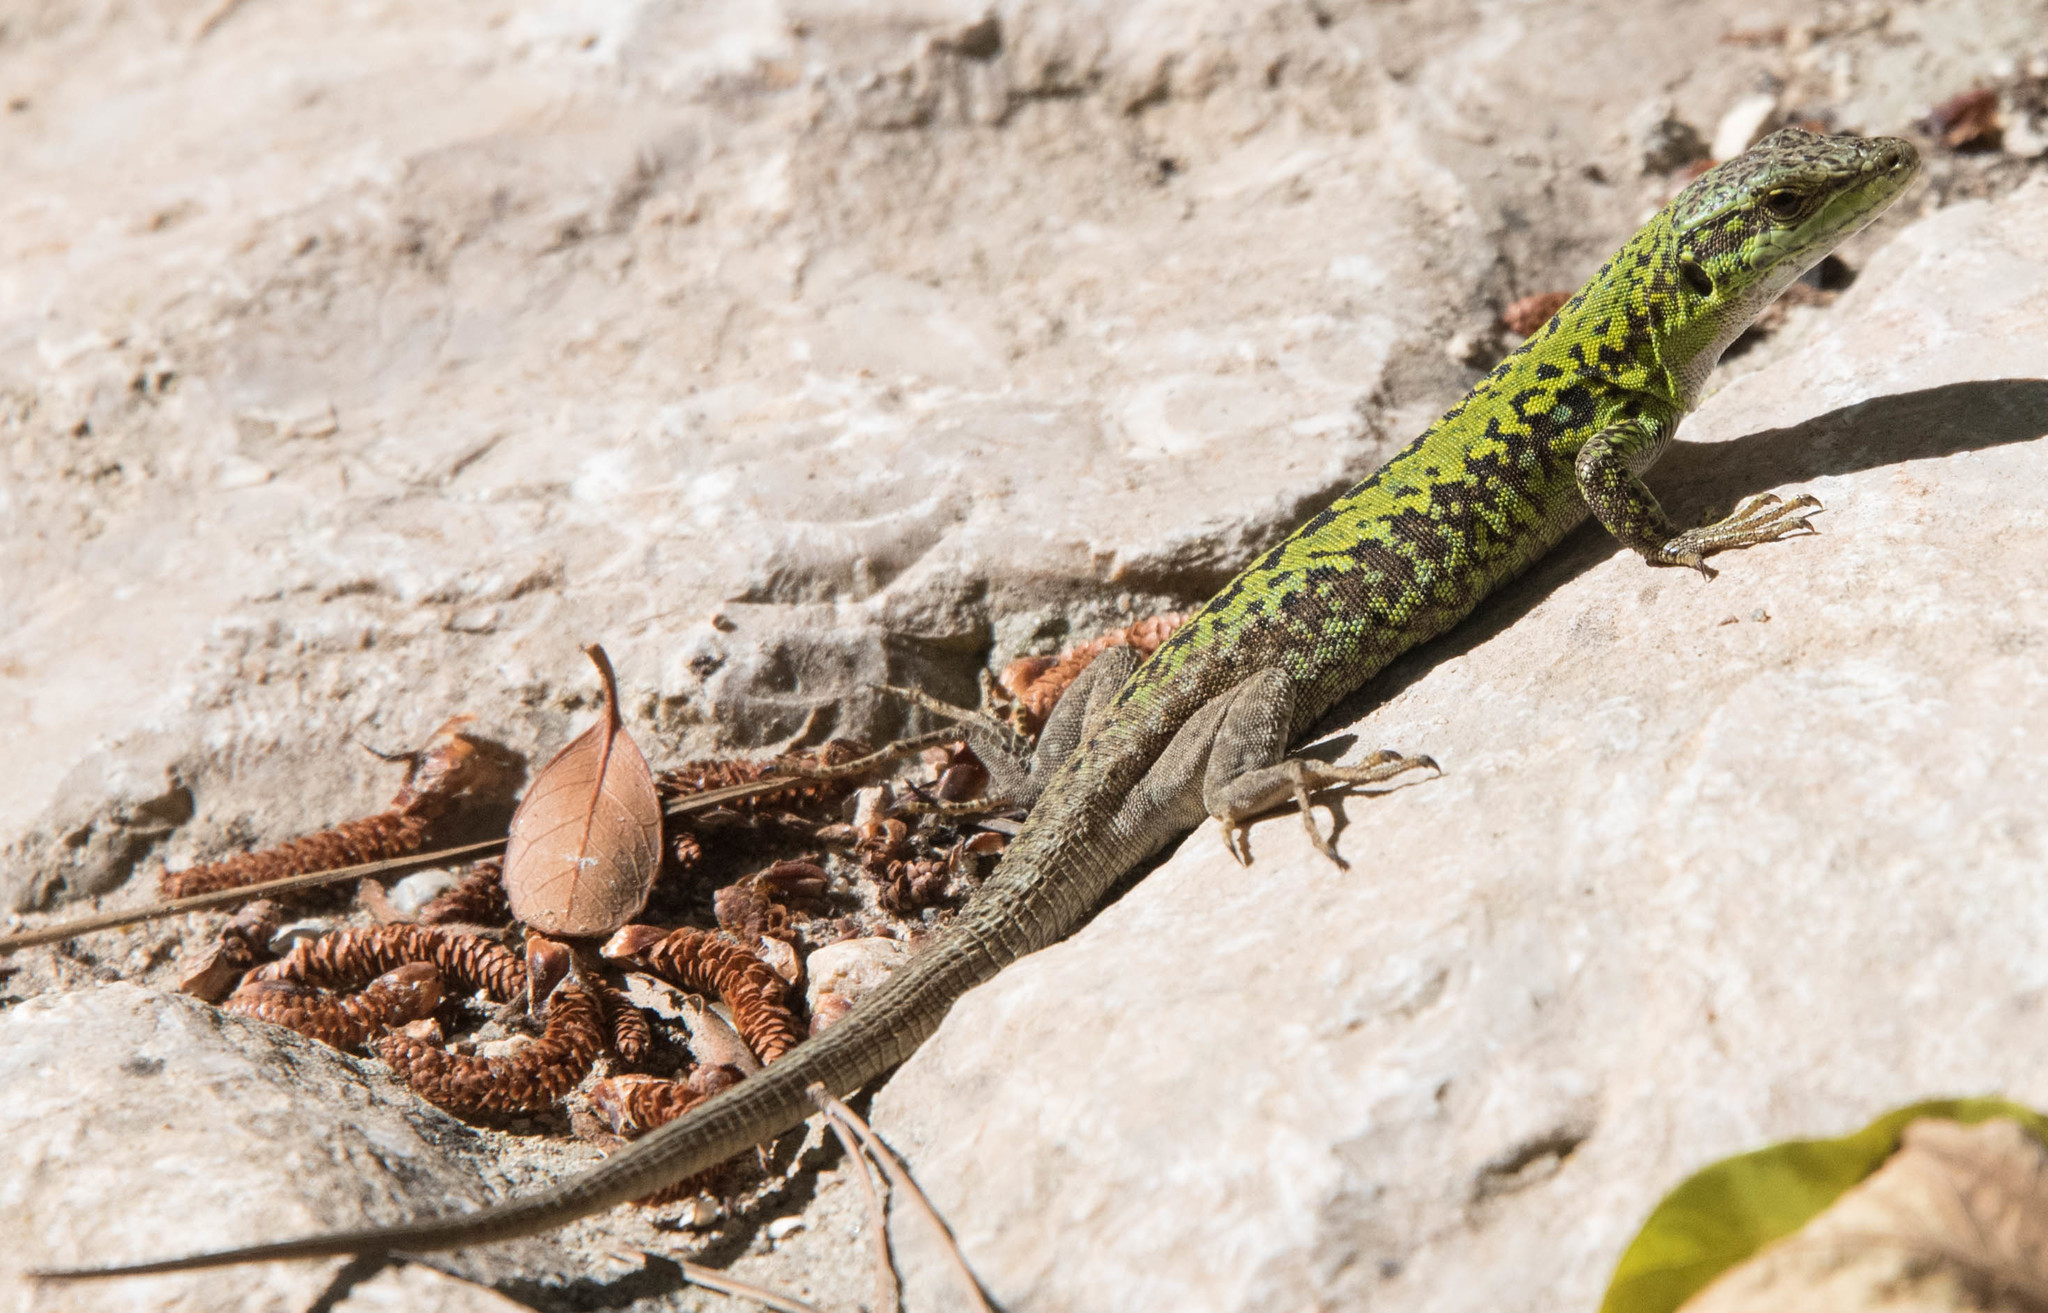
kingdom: Animalia
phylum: Chordata
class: Squamata
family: Lacertidae
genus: Podarcis
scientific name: Podarcis siculus
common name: Italian wall lizard
